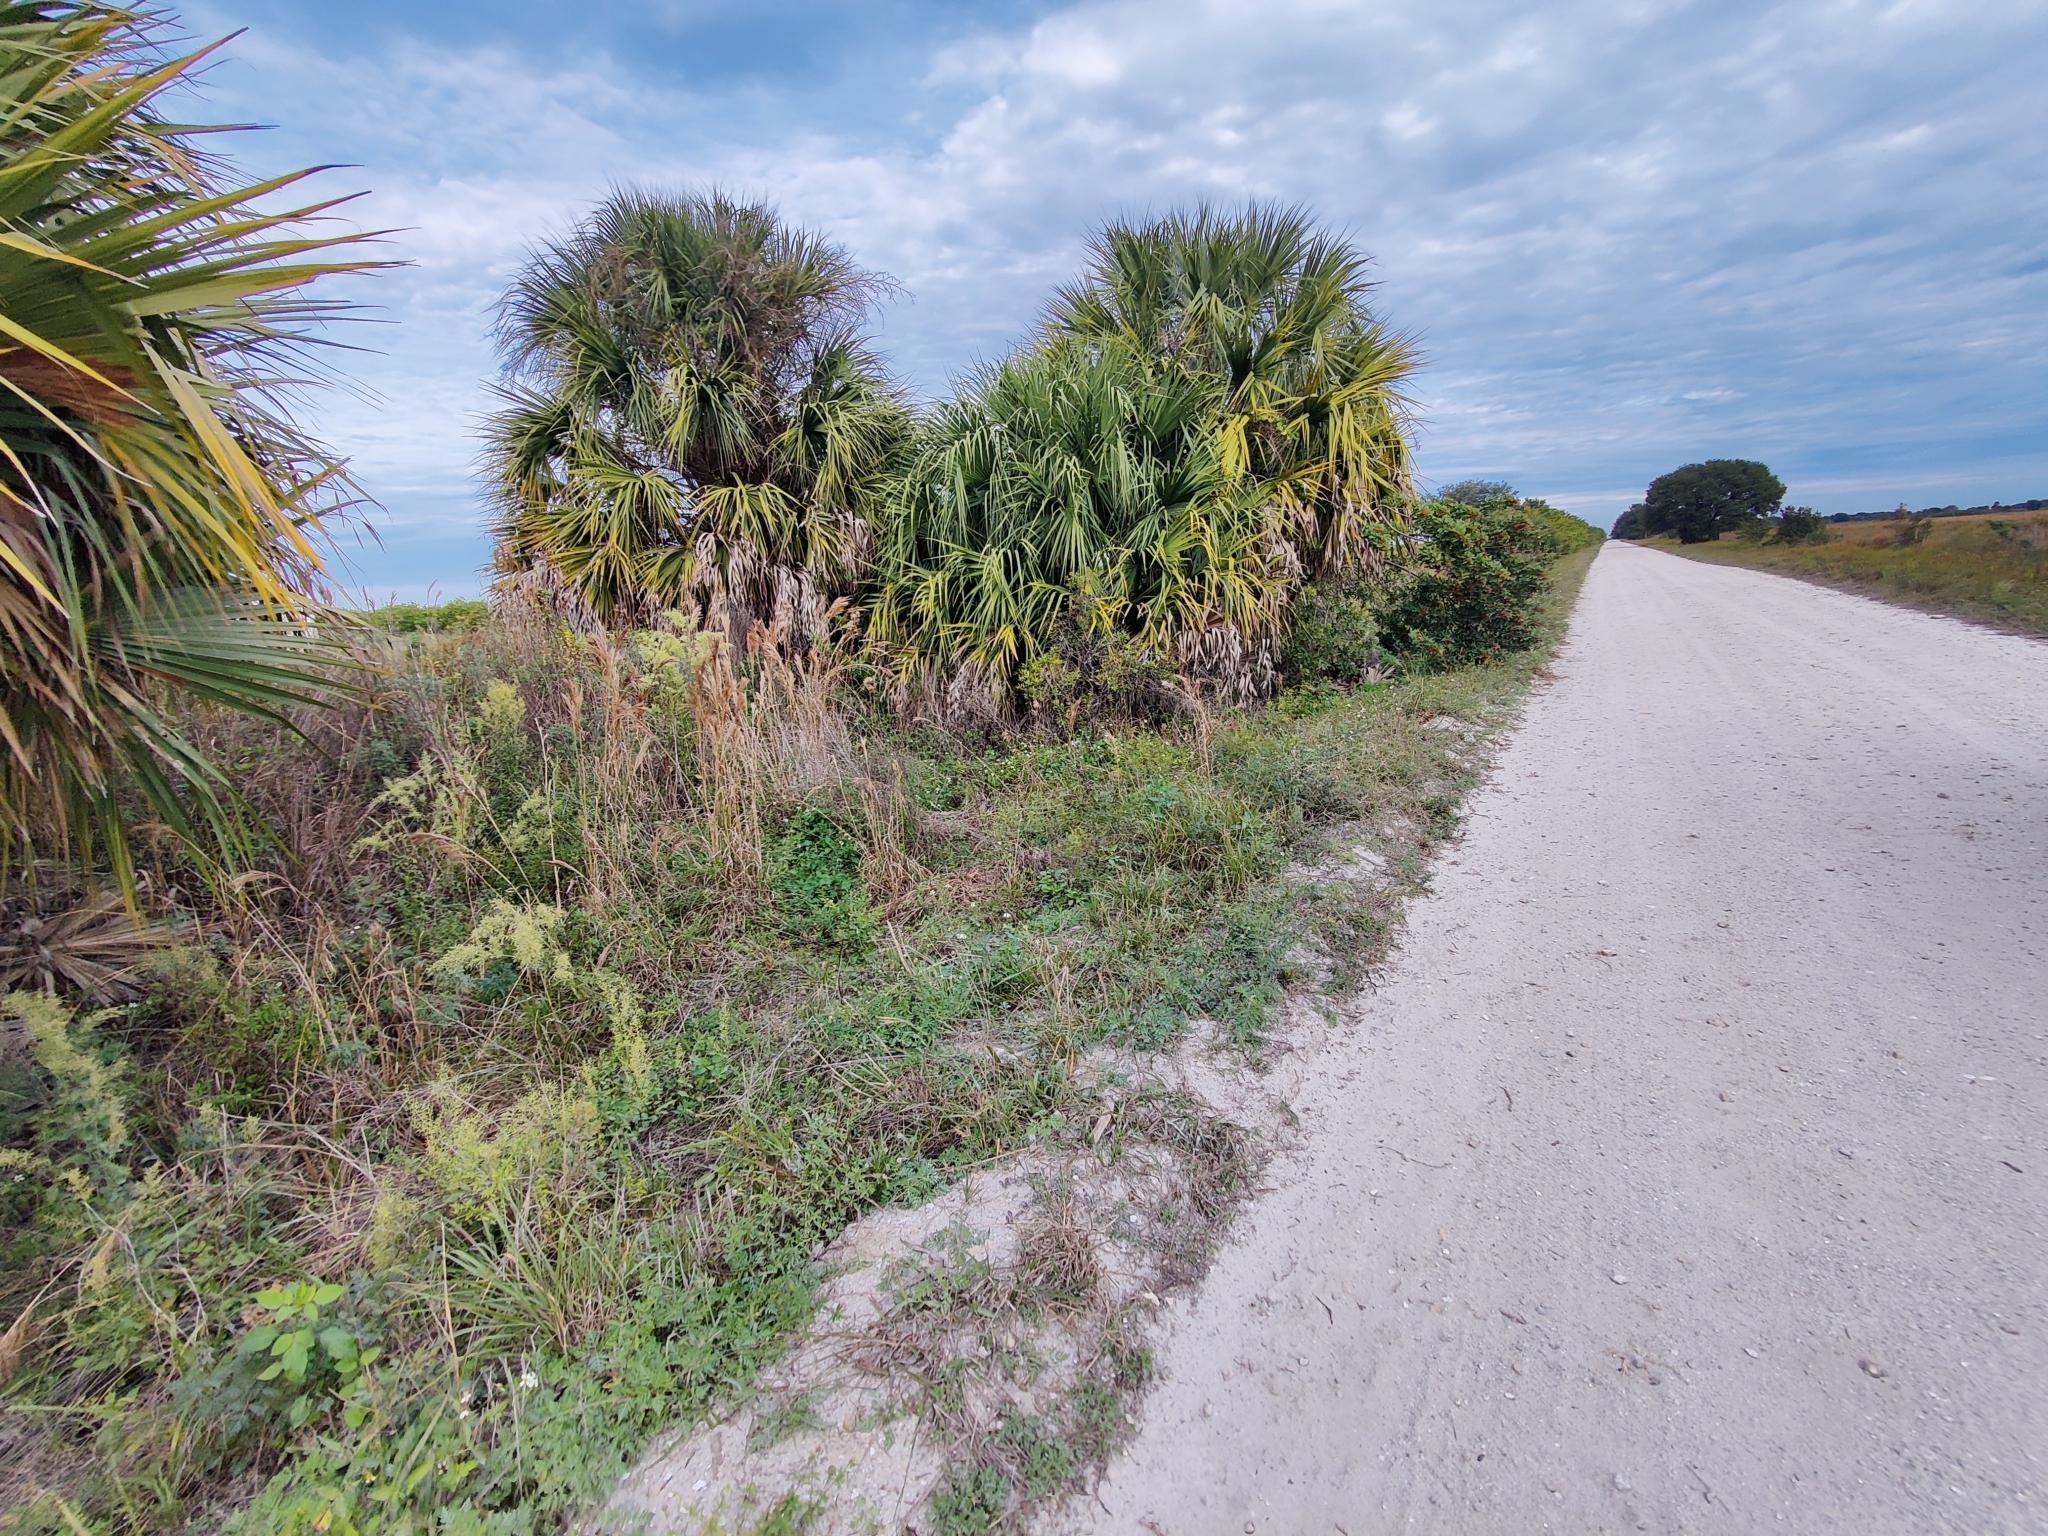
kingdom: Plantae
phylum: Tracheophyta
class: Magnoliopsida
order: Caryophyllales
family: Amaranthaceae
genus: Iresine
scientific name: Iresine diffusa
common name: Juba's-bush
